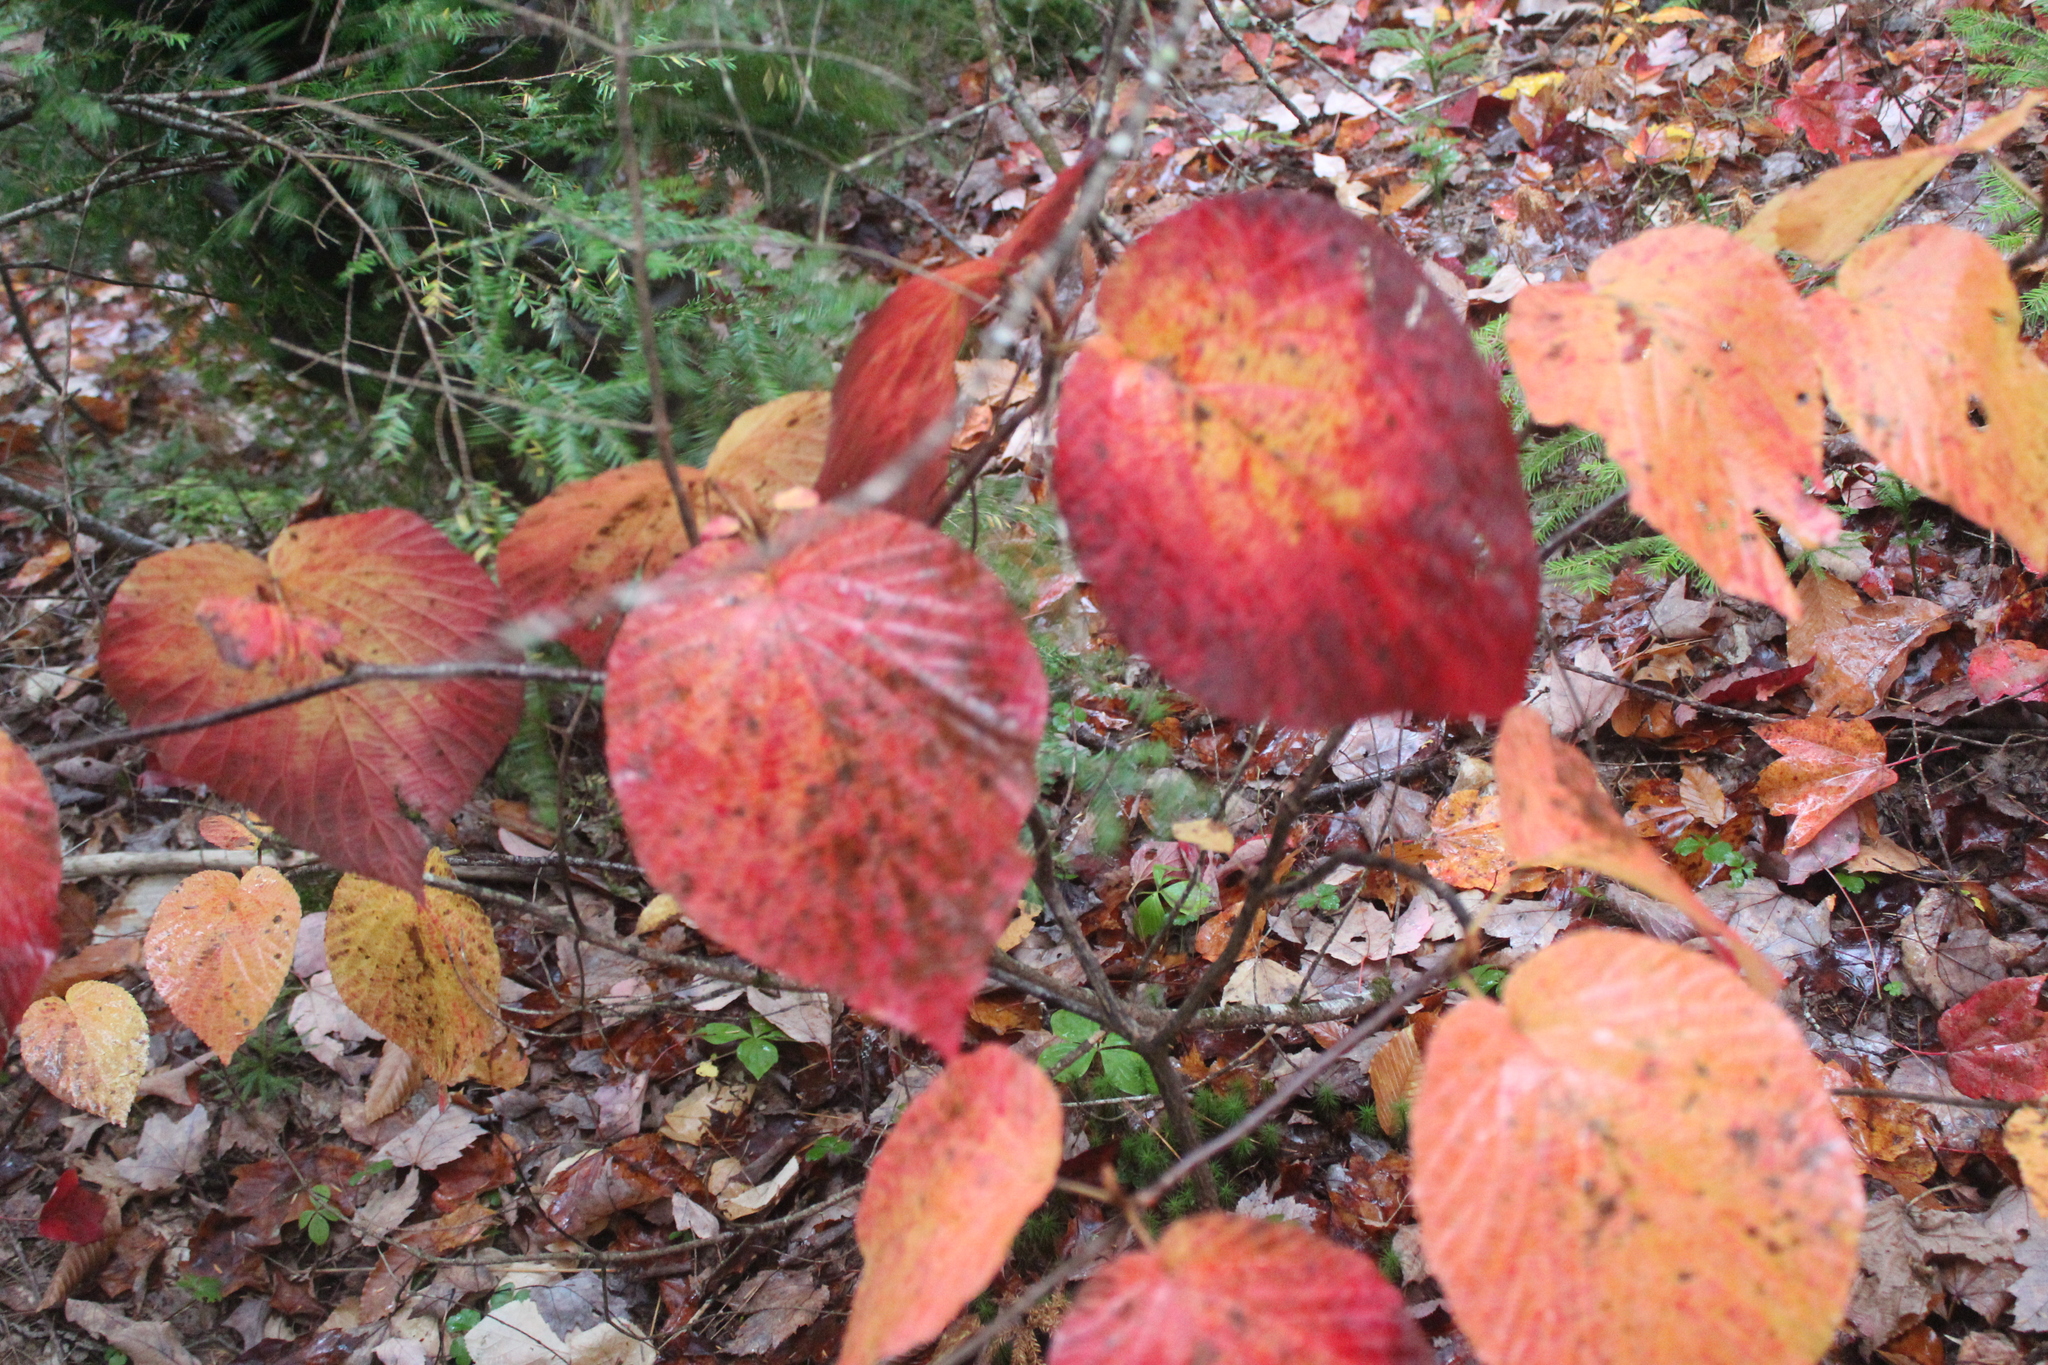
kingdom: Plantae
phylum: Tracheophyta
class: Magnoliopsida
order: Dipsacales
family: Viburnaceae
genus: Viburnum
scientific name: Viburnum lantanoides
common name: Hobblebush
